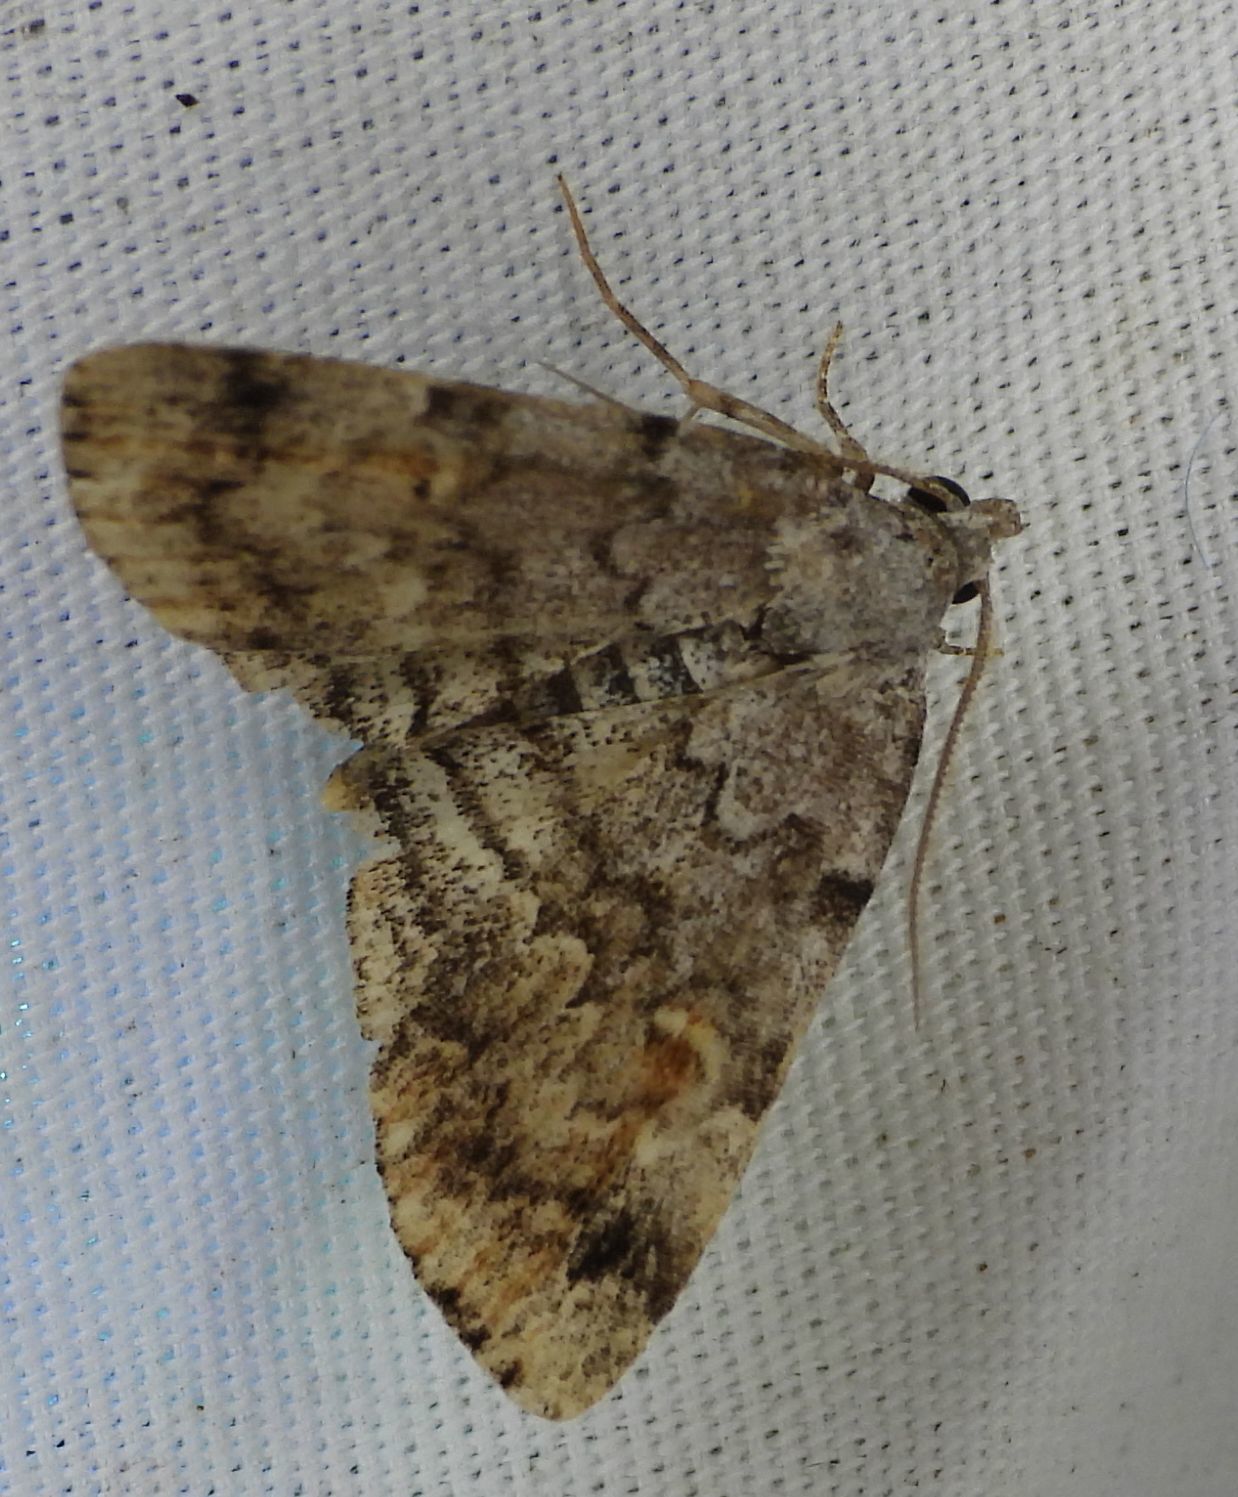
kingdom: Animalia
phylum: Arthropoda
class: Insecta
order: Lepidoptera
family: Erebidae
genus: Idia
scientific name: Idia americalis
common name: American idia moth
